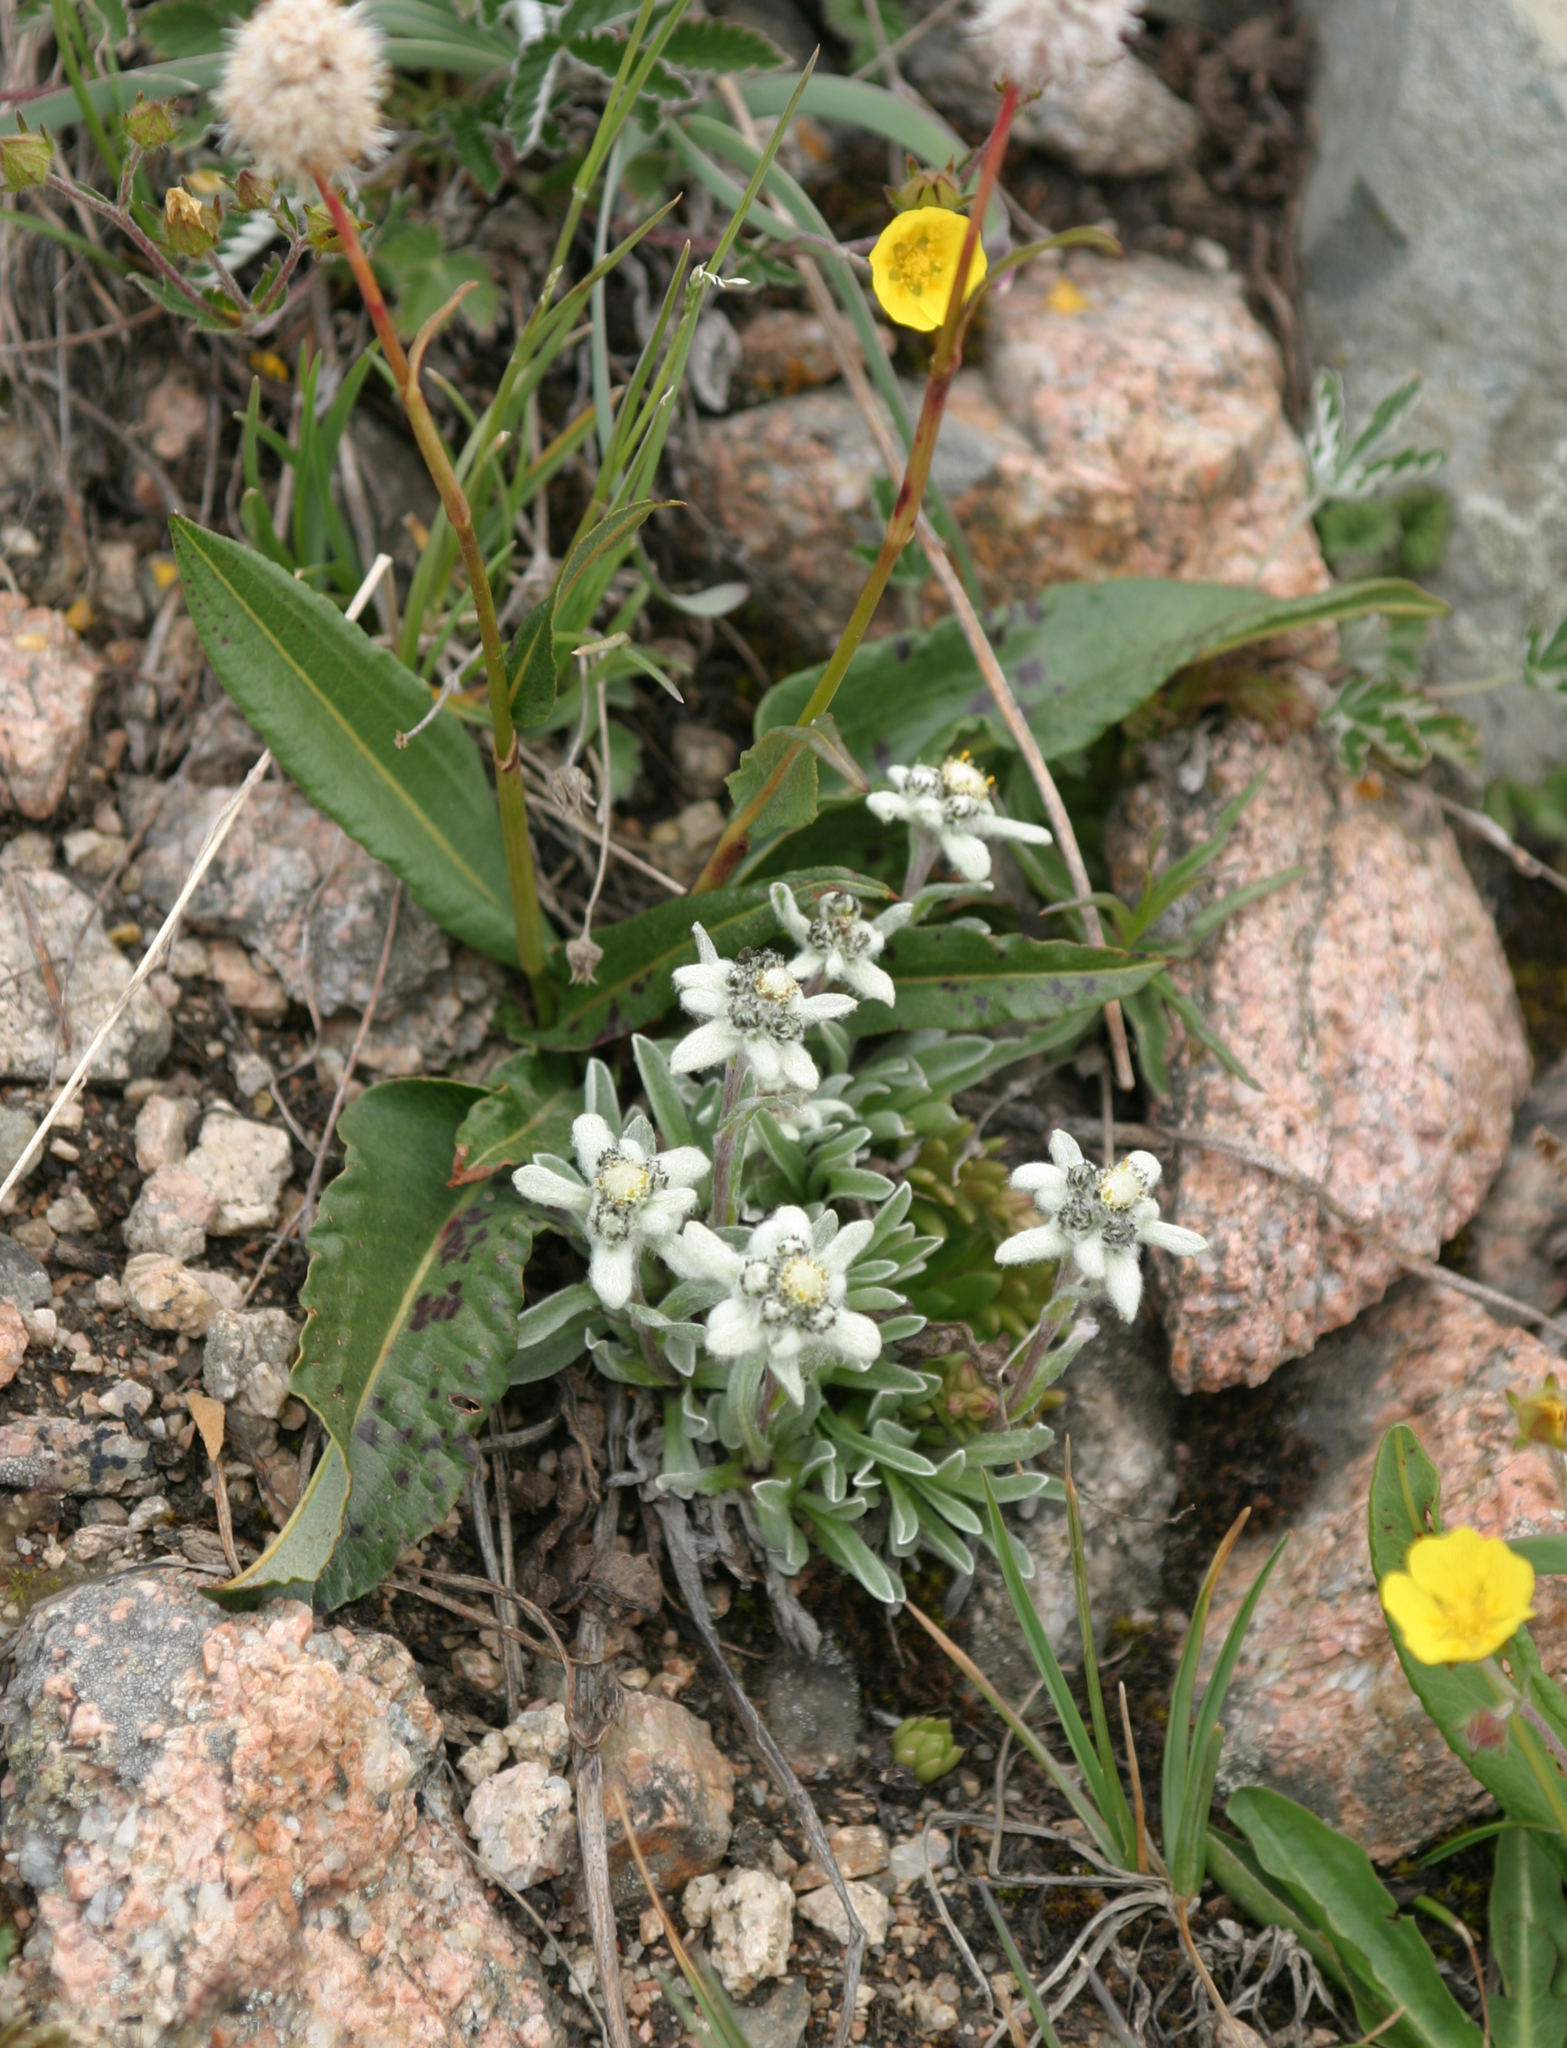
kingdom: Plantae
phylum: Tracheophyta
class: Magnoliopsida
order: Asterales
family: Asteraceae
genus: Leontopodium
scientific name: Leontopodium leontopodinum
